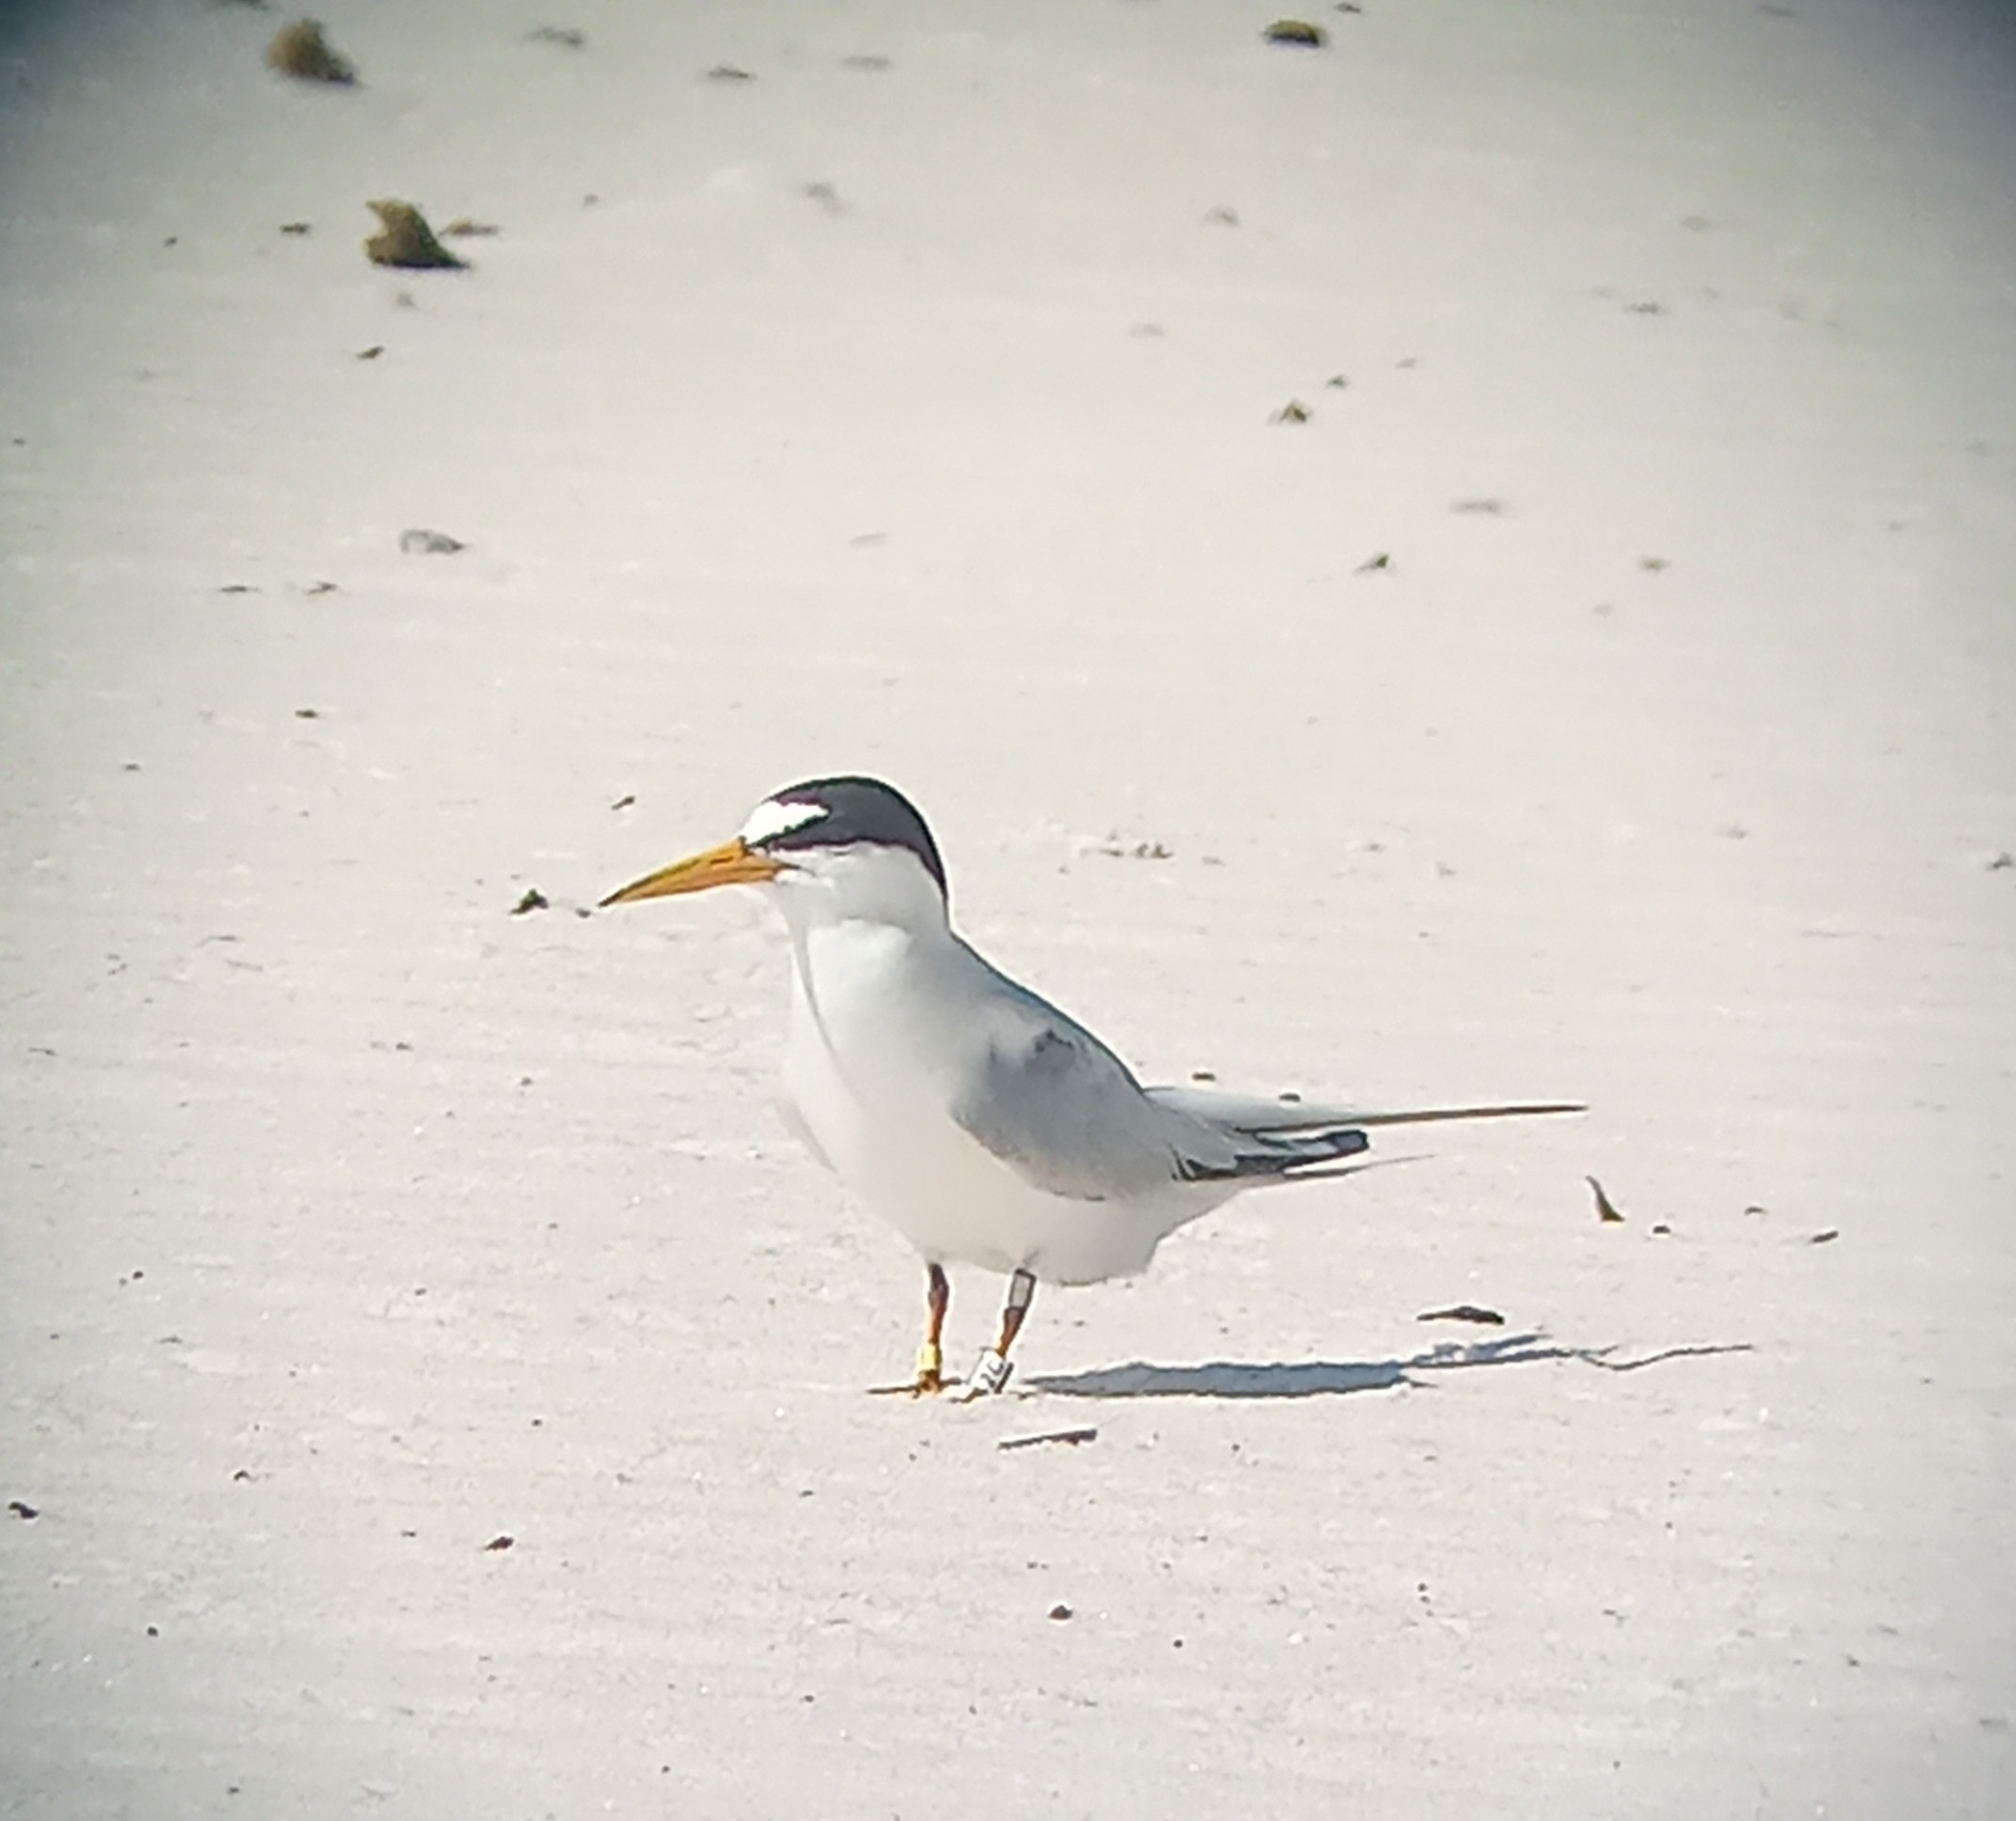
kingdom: Animalia
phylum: Chordata
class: Aves
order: Charadriiformes
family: Laridae
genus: Sternula
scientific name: Sternula antillarum
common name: Least tern
